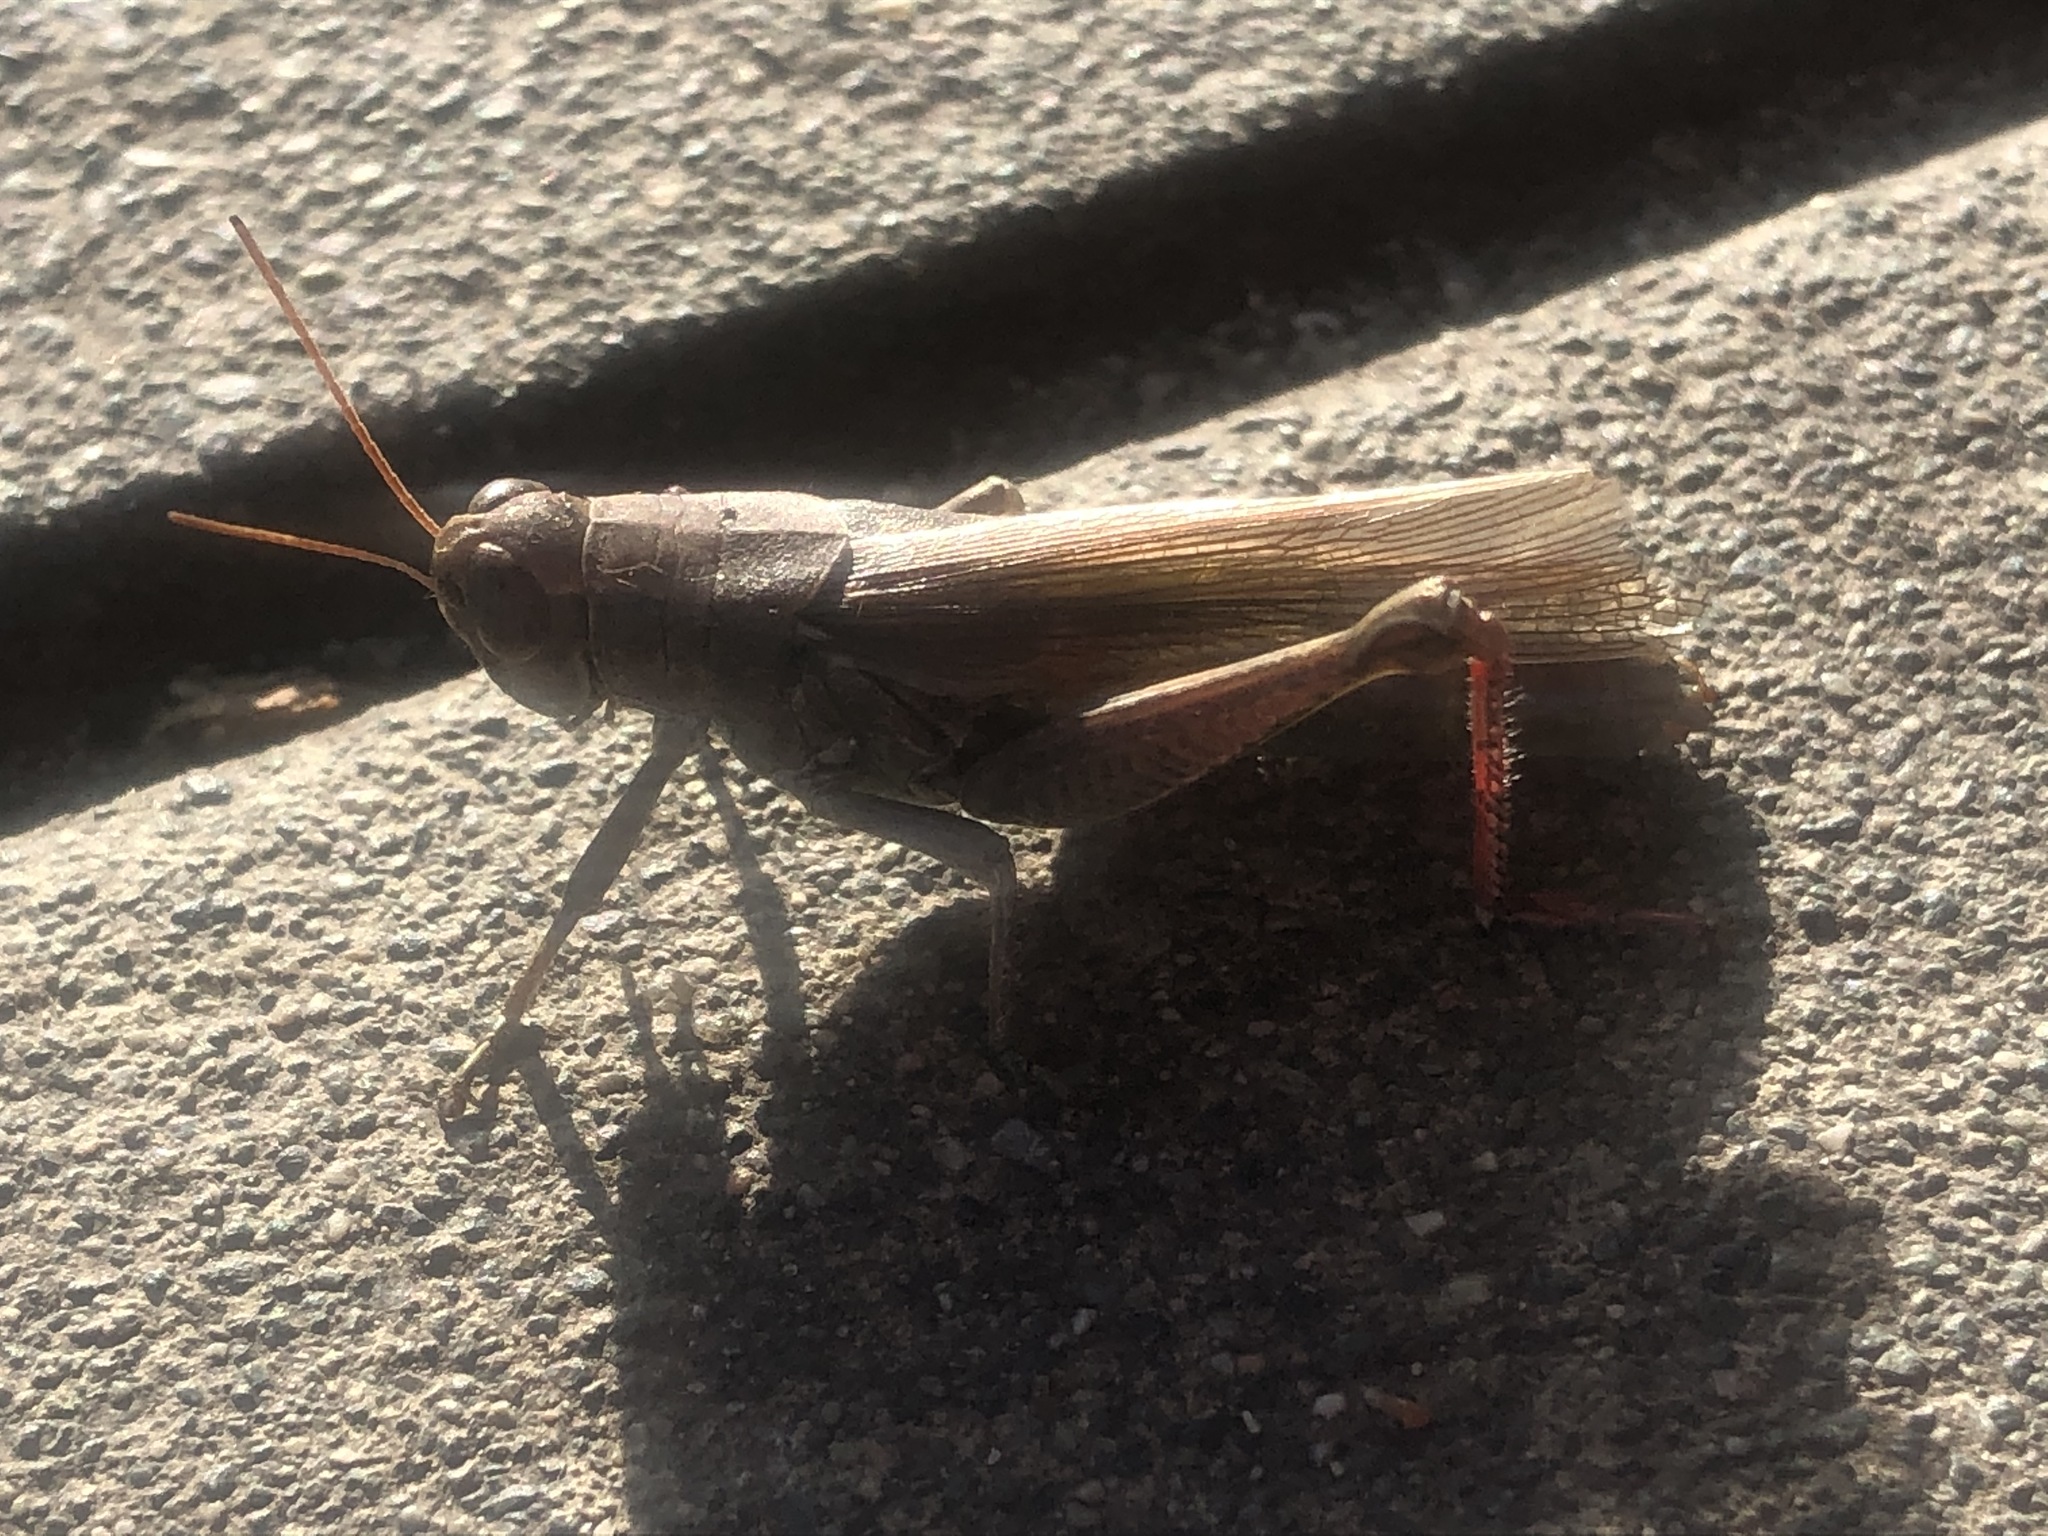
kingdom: Animalia
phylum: Arthropoda
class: Insecta
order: Orthoptera
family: Acrididae
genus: Melanoplus
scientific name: Melanoplus yarrowii
